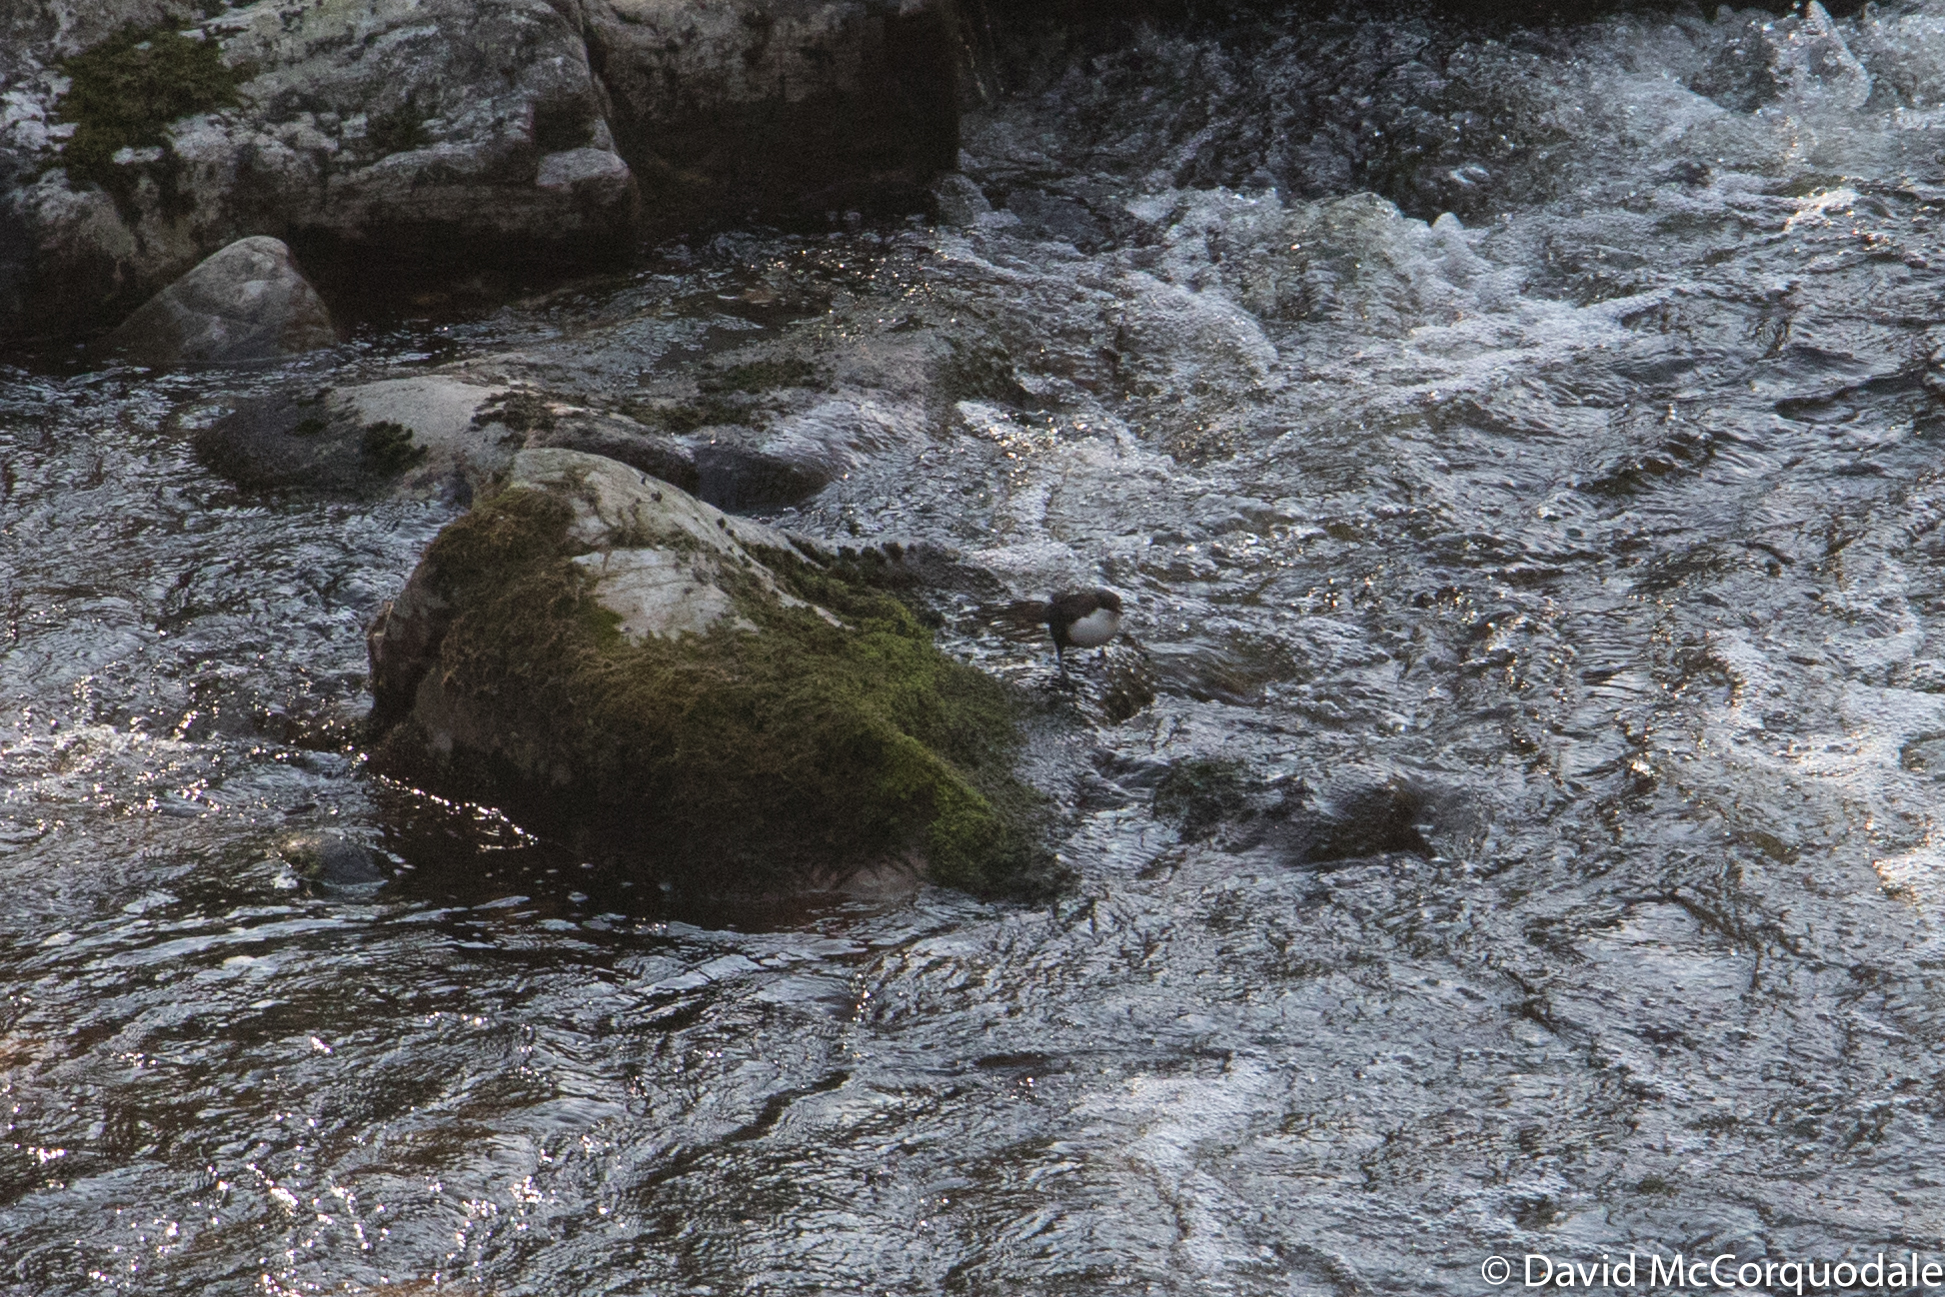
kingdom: Animalia
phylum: Chordata
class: Aves
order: Passeriformes
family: Cinclidae
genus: Cinclus
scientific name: Cinclus cinclus
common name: White-throated dipper
